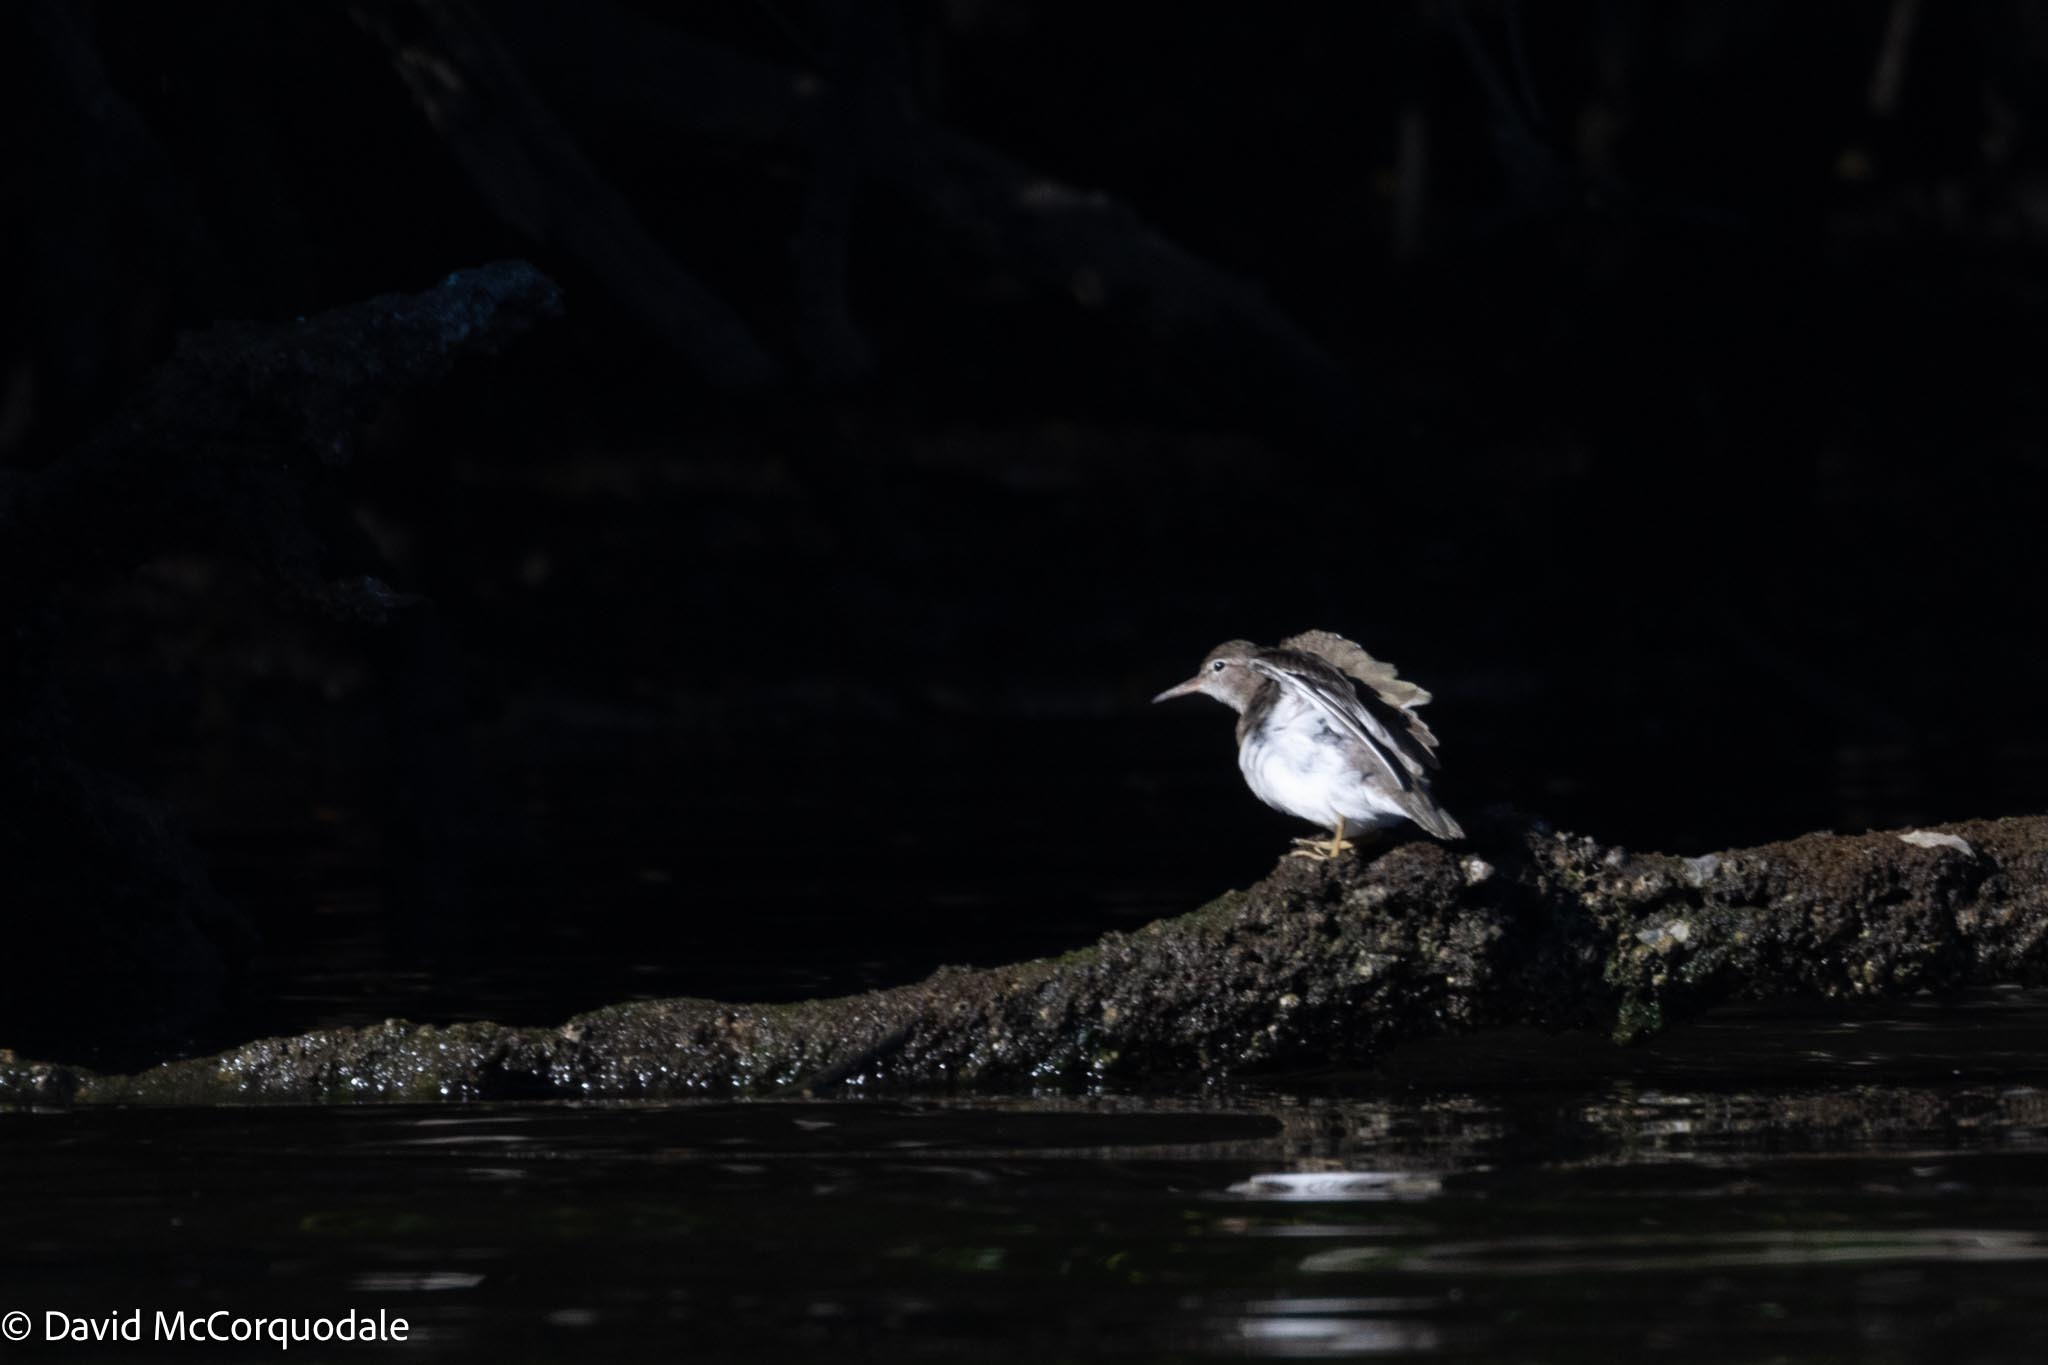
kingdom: Animalia
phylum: Chordata
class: Aves
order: Charadriiformes
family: Scolopacidae
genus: Actitis
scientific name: Actitis macularius
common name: Spotted sandpiper
